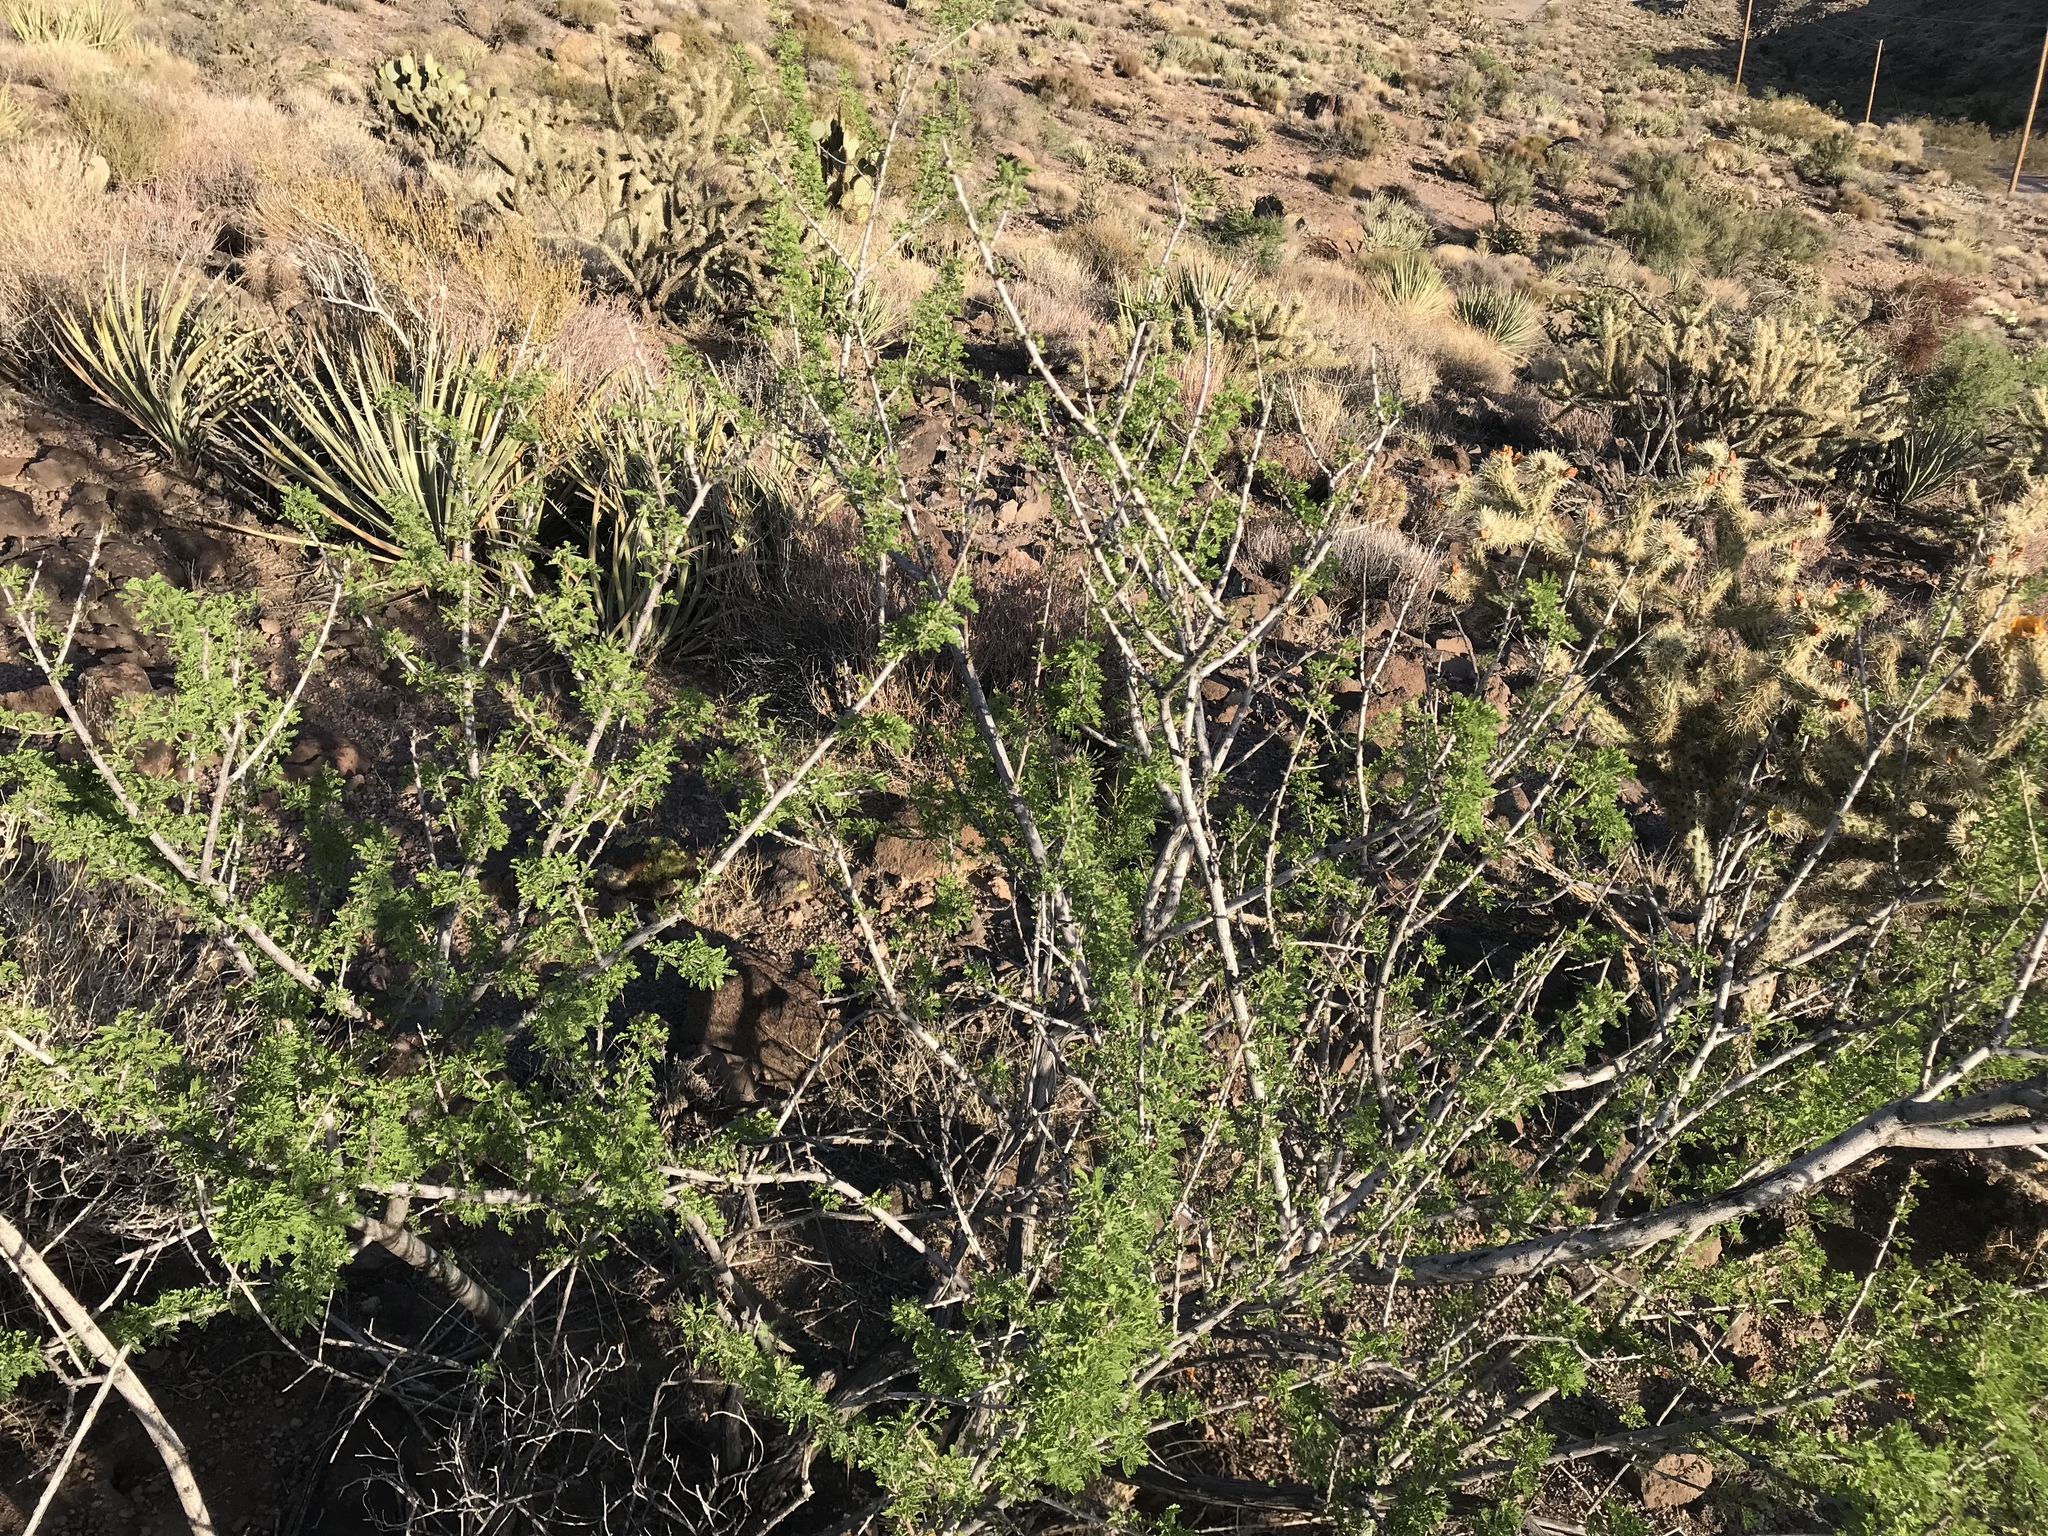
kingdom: Plantae
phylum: Tracheophyta
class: Magnoliopsida
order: Fabales
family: Fabaceae
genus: Senegalia
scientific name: Senegalia greggii
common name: Texas-mimosa
